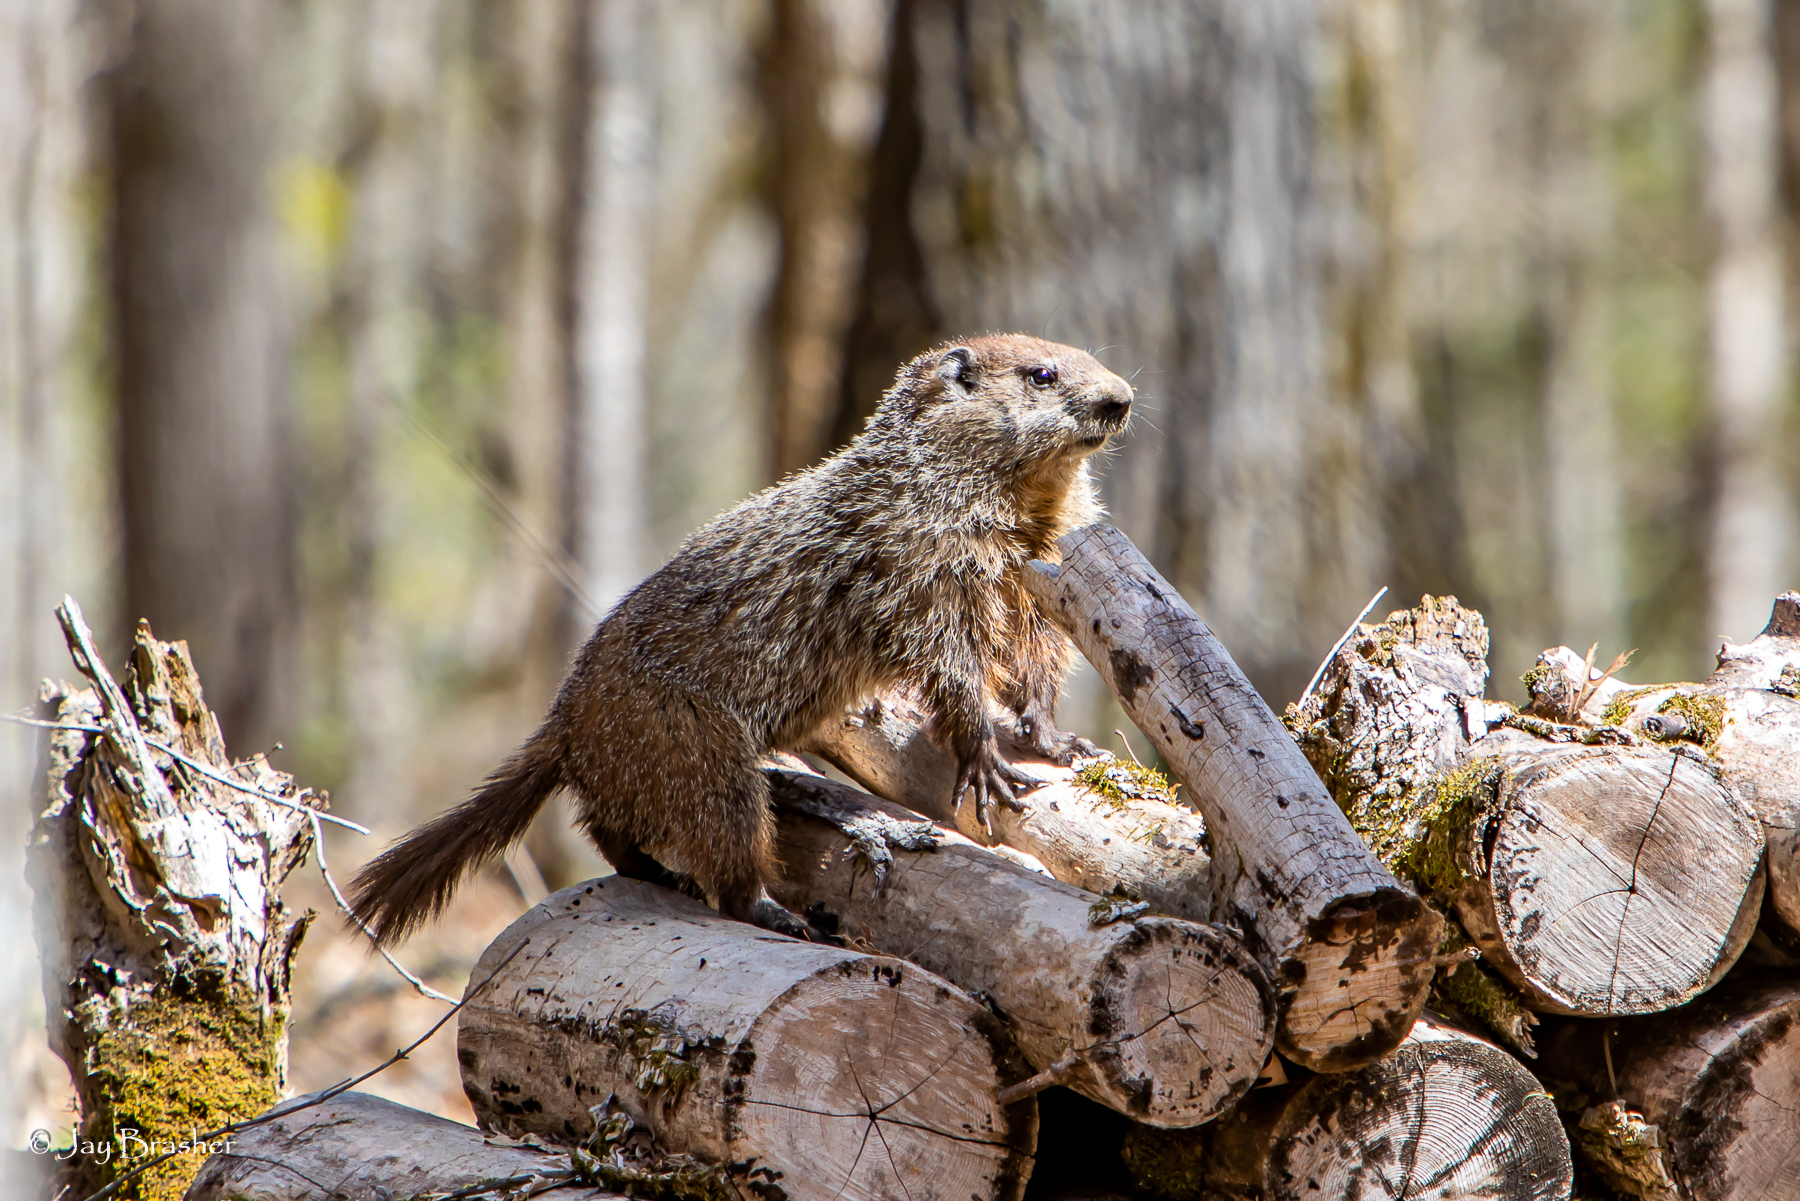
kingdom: Animalia
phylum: Chordata
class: Mammalia
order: Rodentia
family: Sciuridae
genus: Marmota
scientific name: Marmota monax
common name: Groundhog
